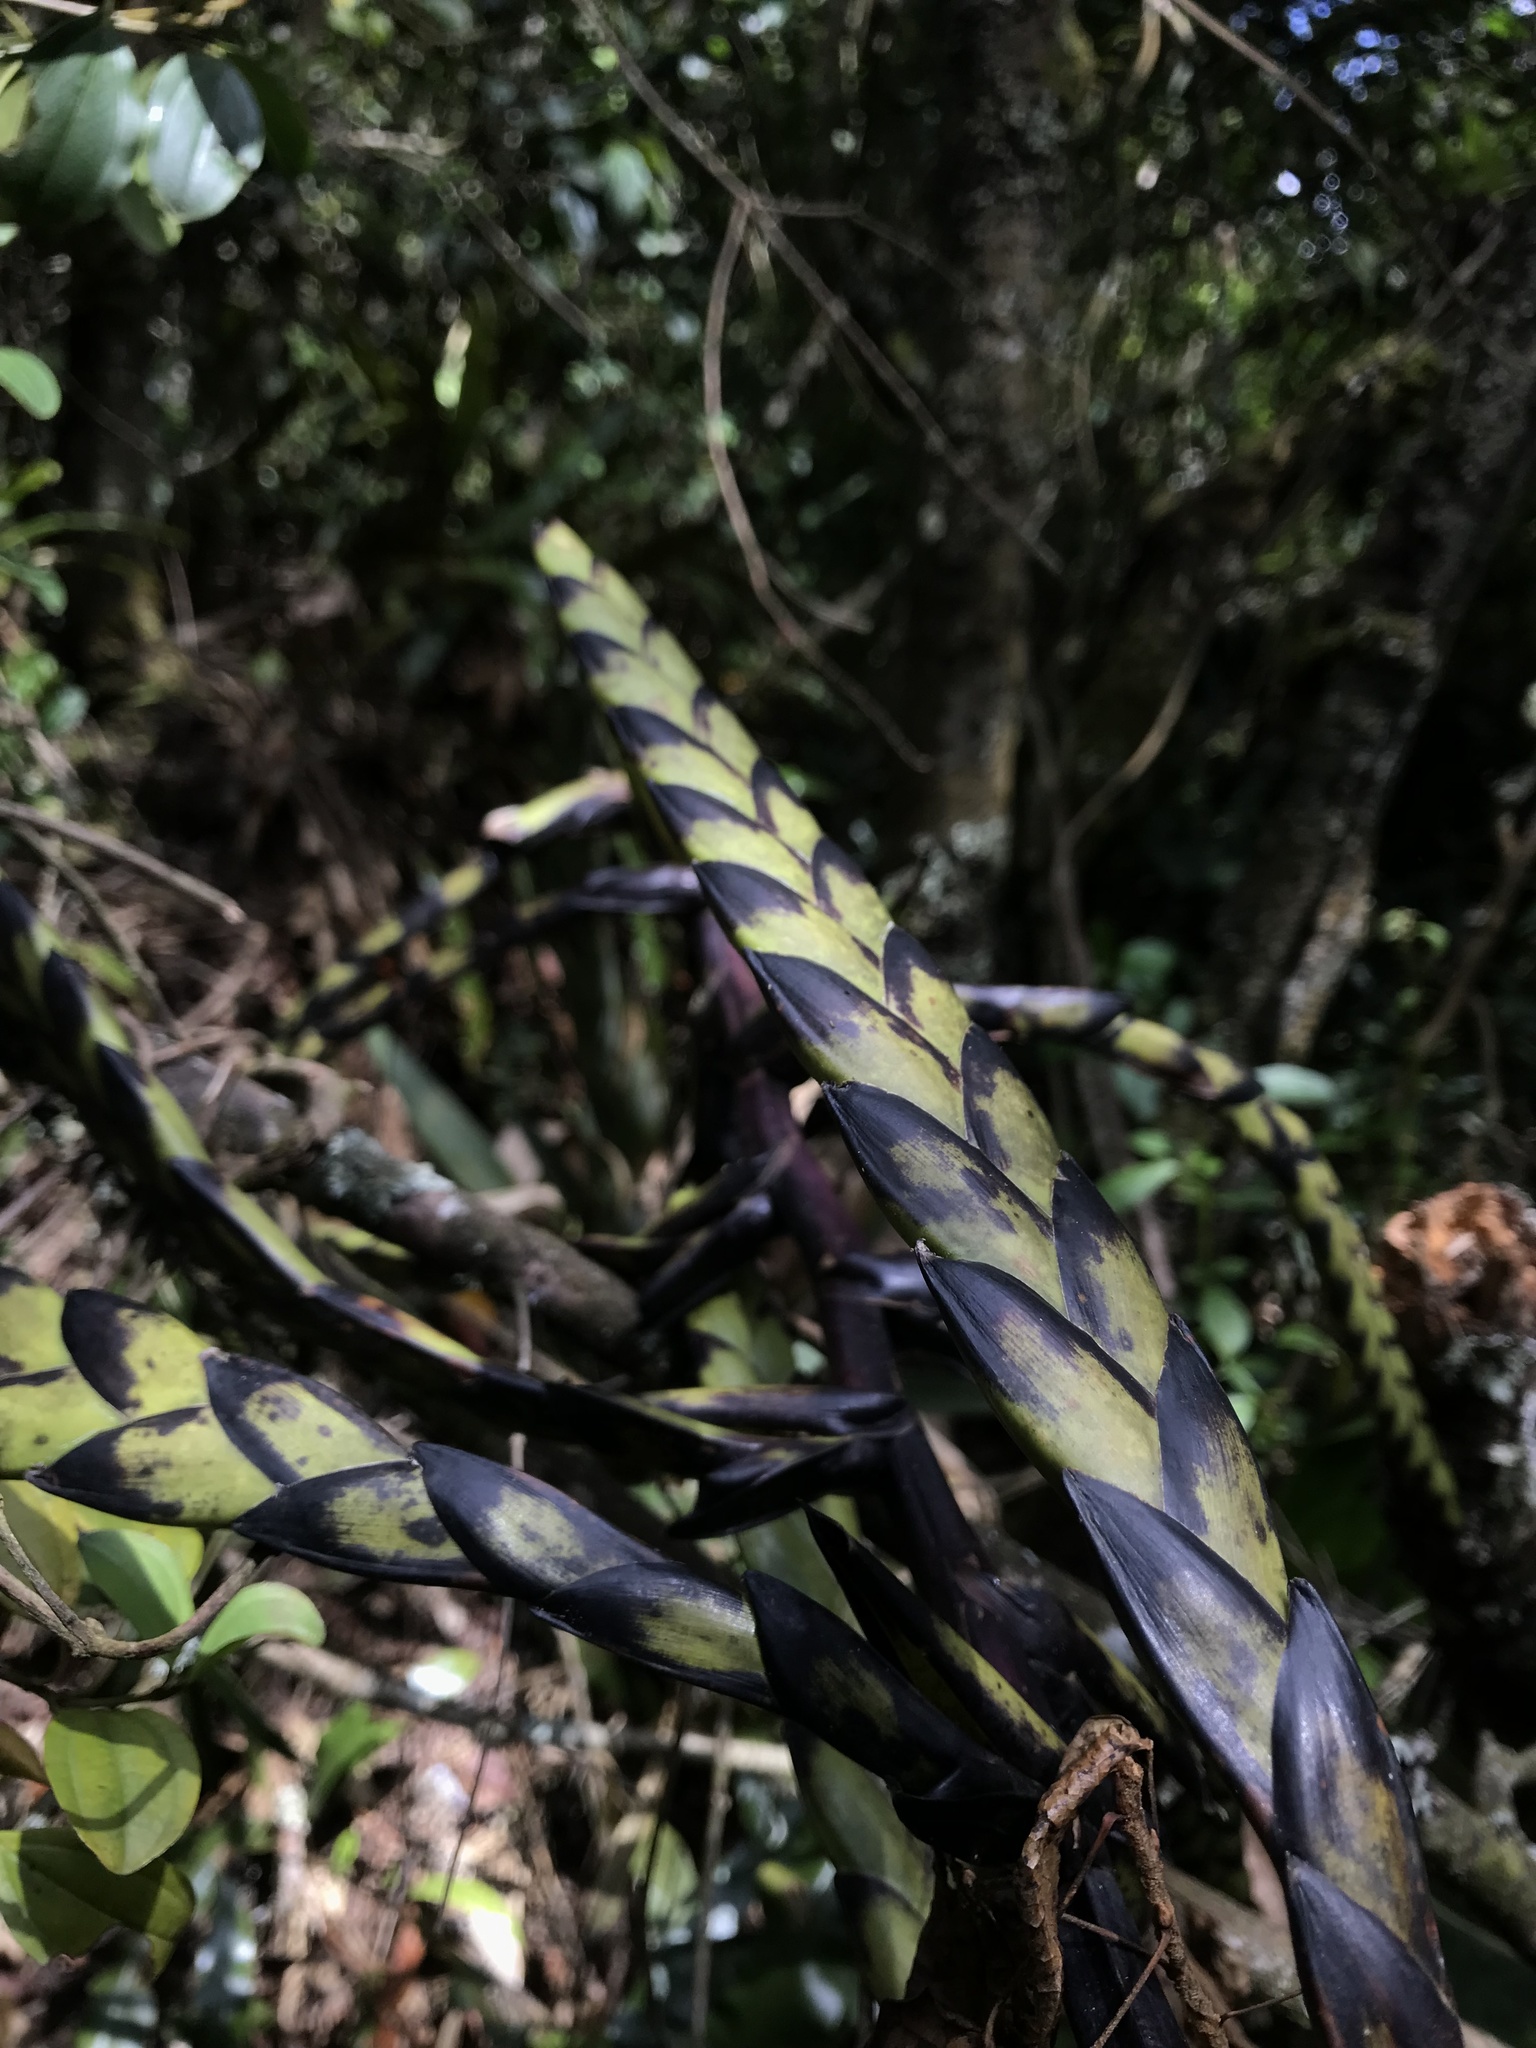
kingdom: Plantae
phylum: Tracheophyta
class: Liliopsida
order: Poales
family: Bromeliaceae
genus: Tillandsia
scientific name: Tillandsia francisci
